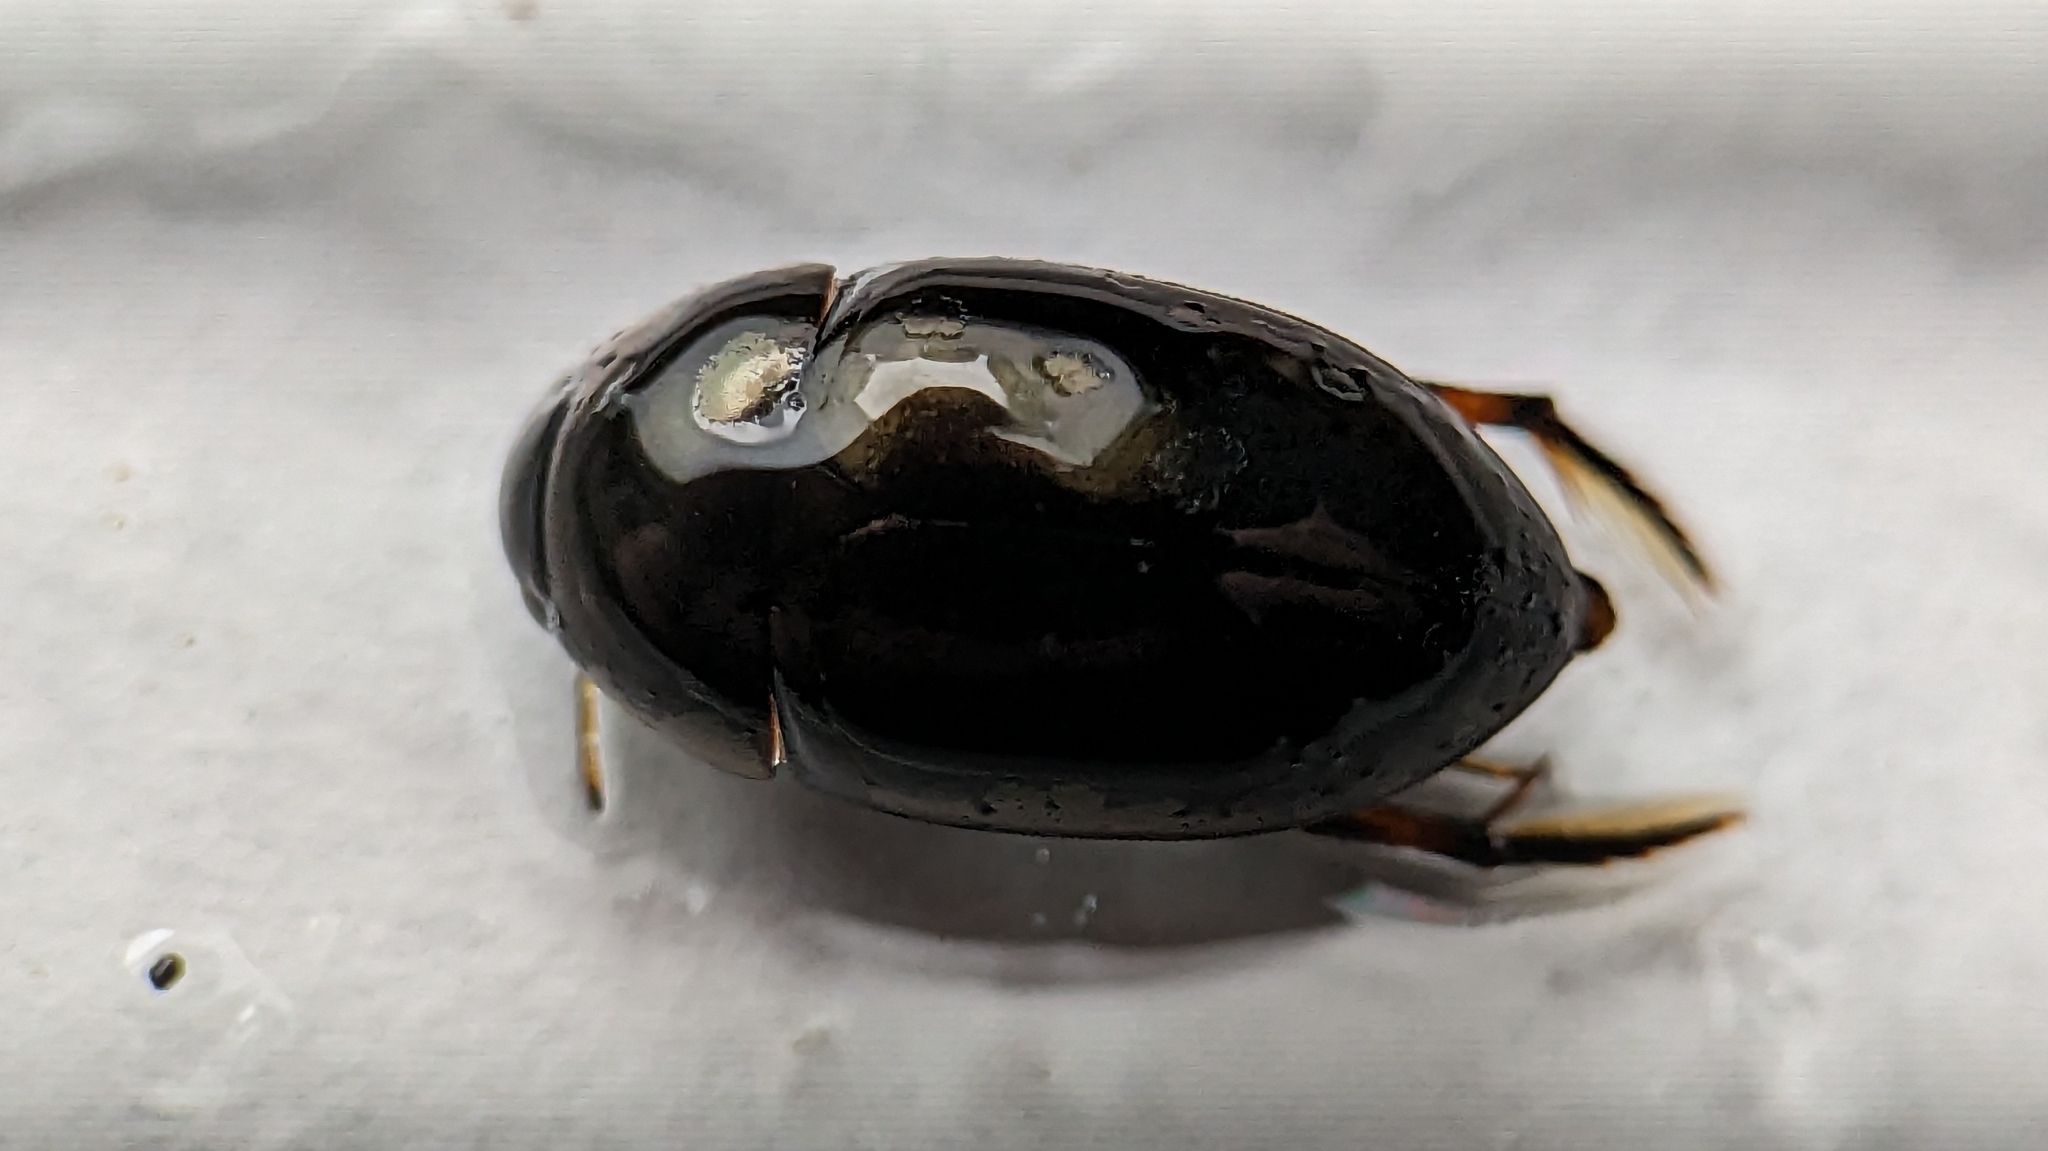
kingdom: Animalia
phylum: Arthropoda
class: Insecta
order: Coleoptera
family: Hydrophilidae
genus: Tropisternus
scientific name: Tropisternus blatchleyi
